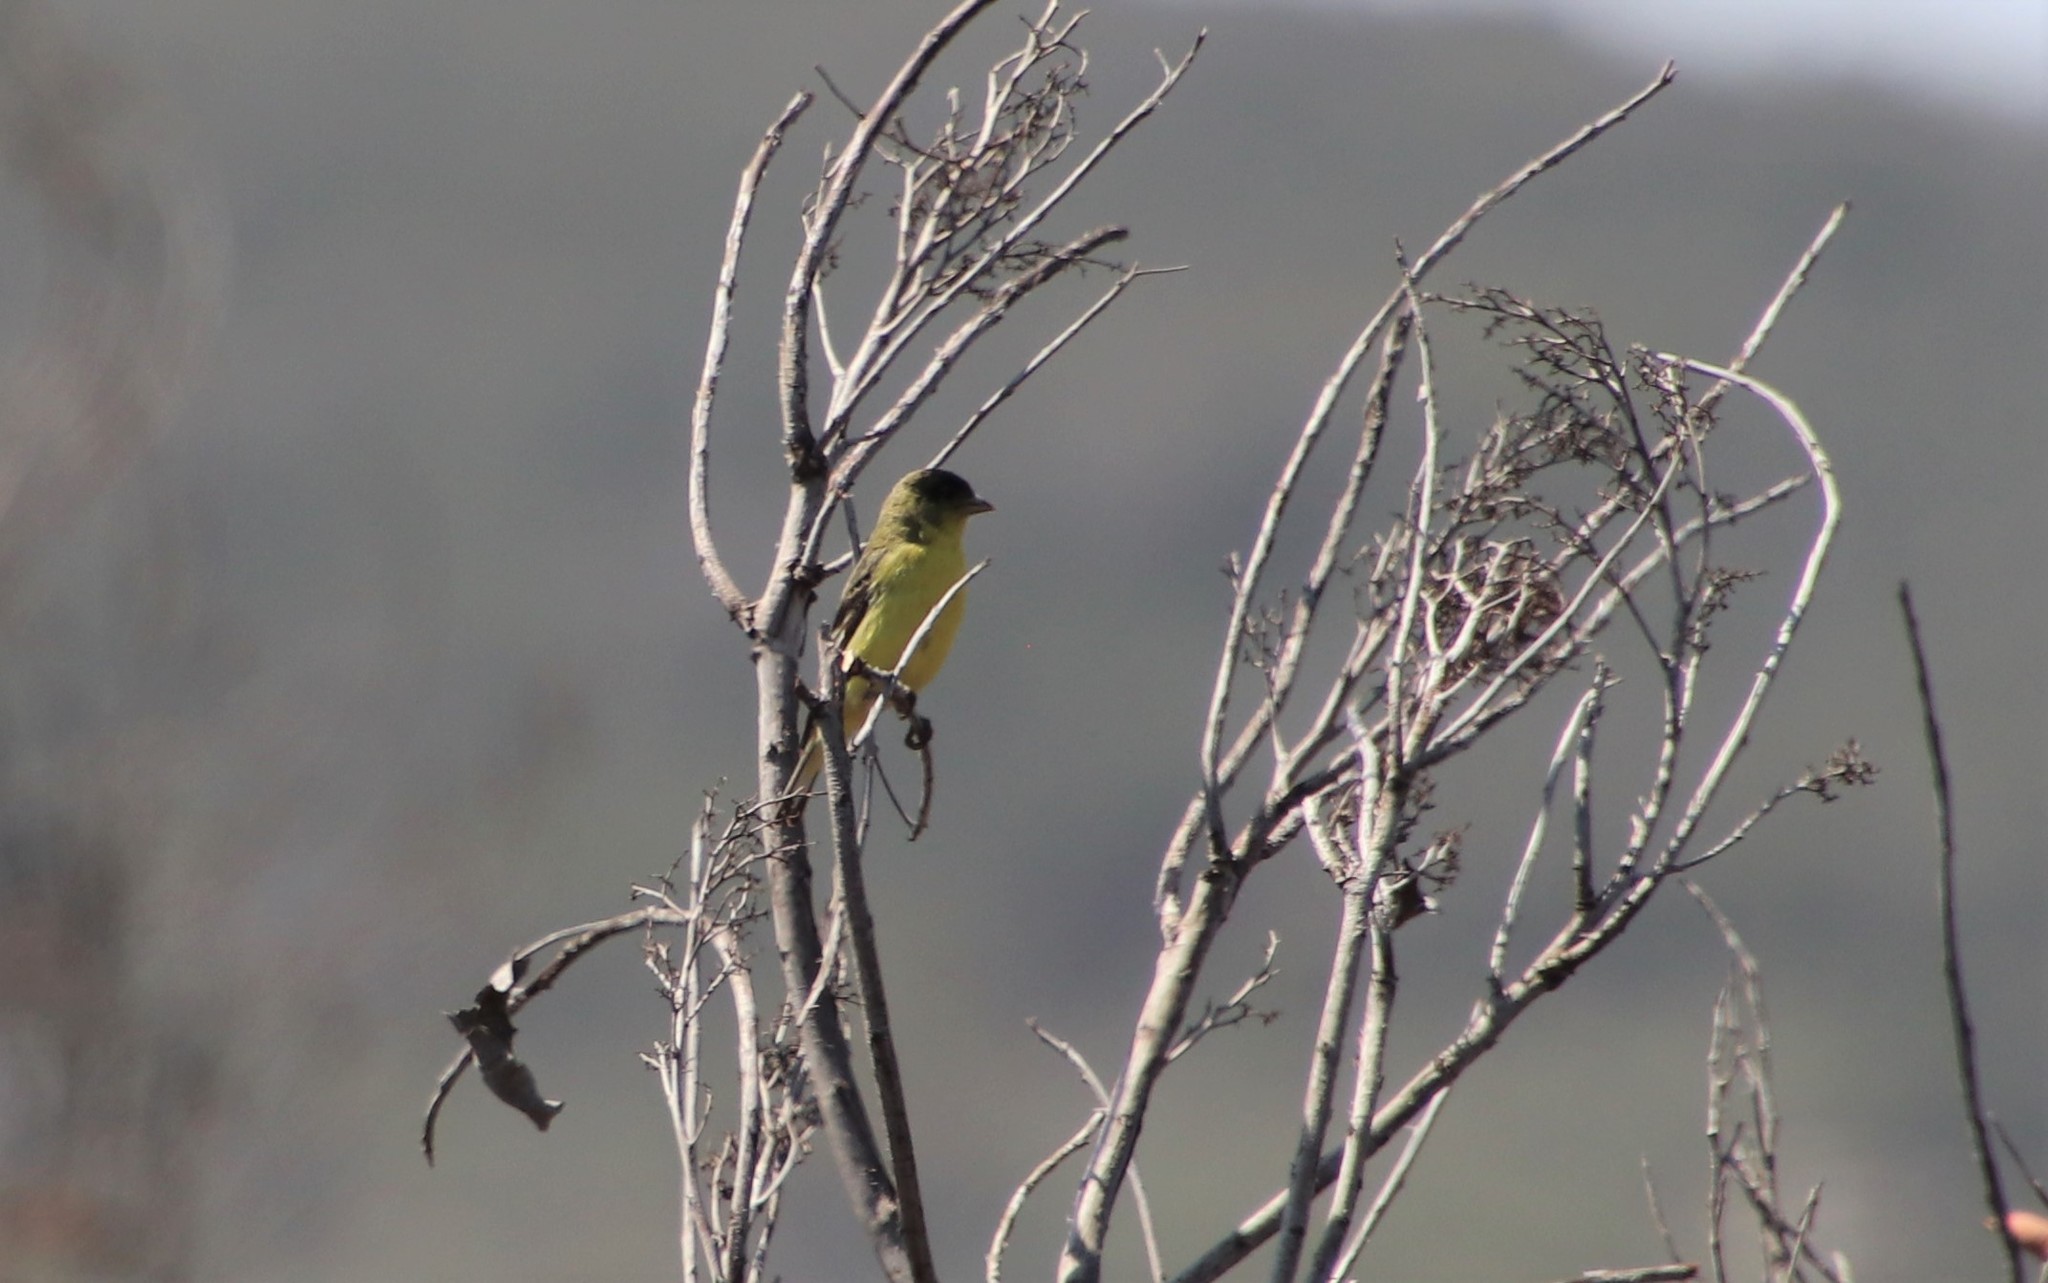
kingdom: Animalia
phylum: Chordata
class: Aves
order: Passeriformes
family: Fringillidae
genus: Spinus
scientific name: Spinus psaltria
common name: Lesser goldfinch
